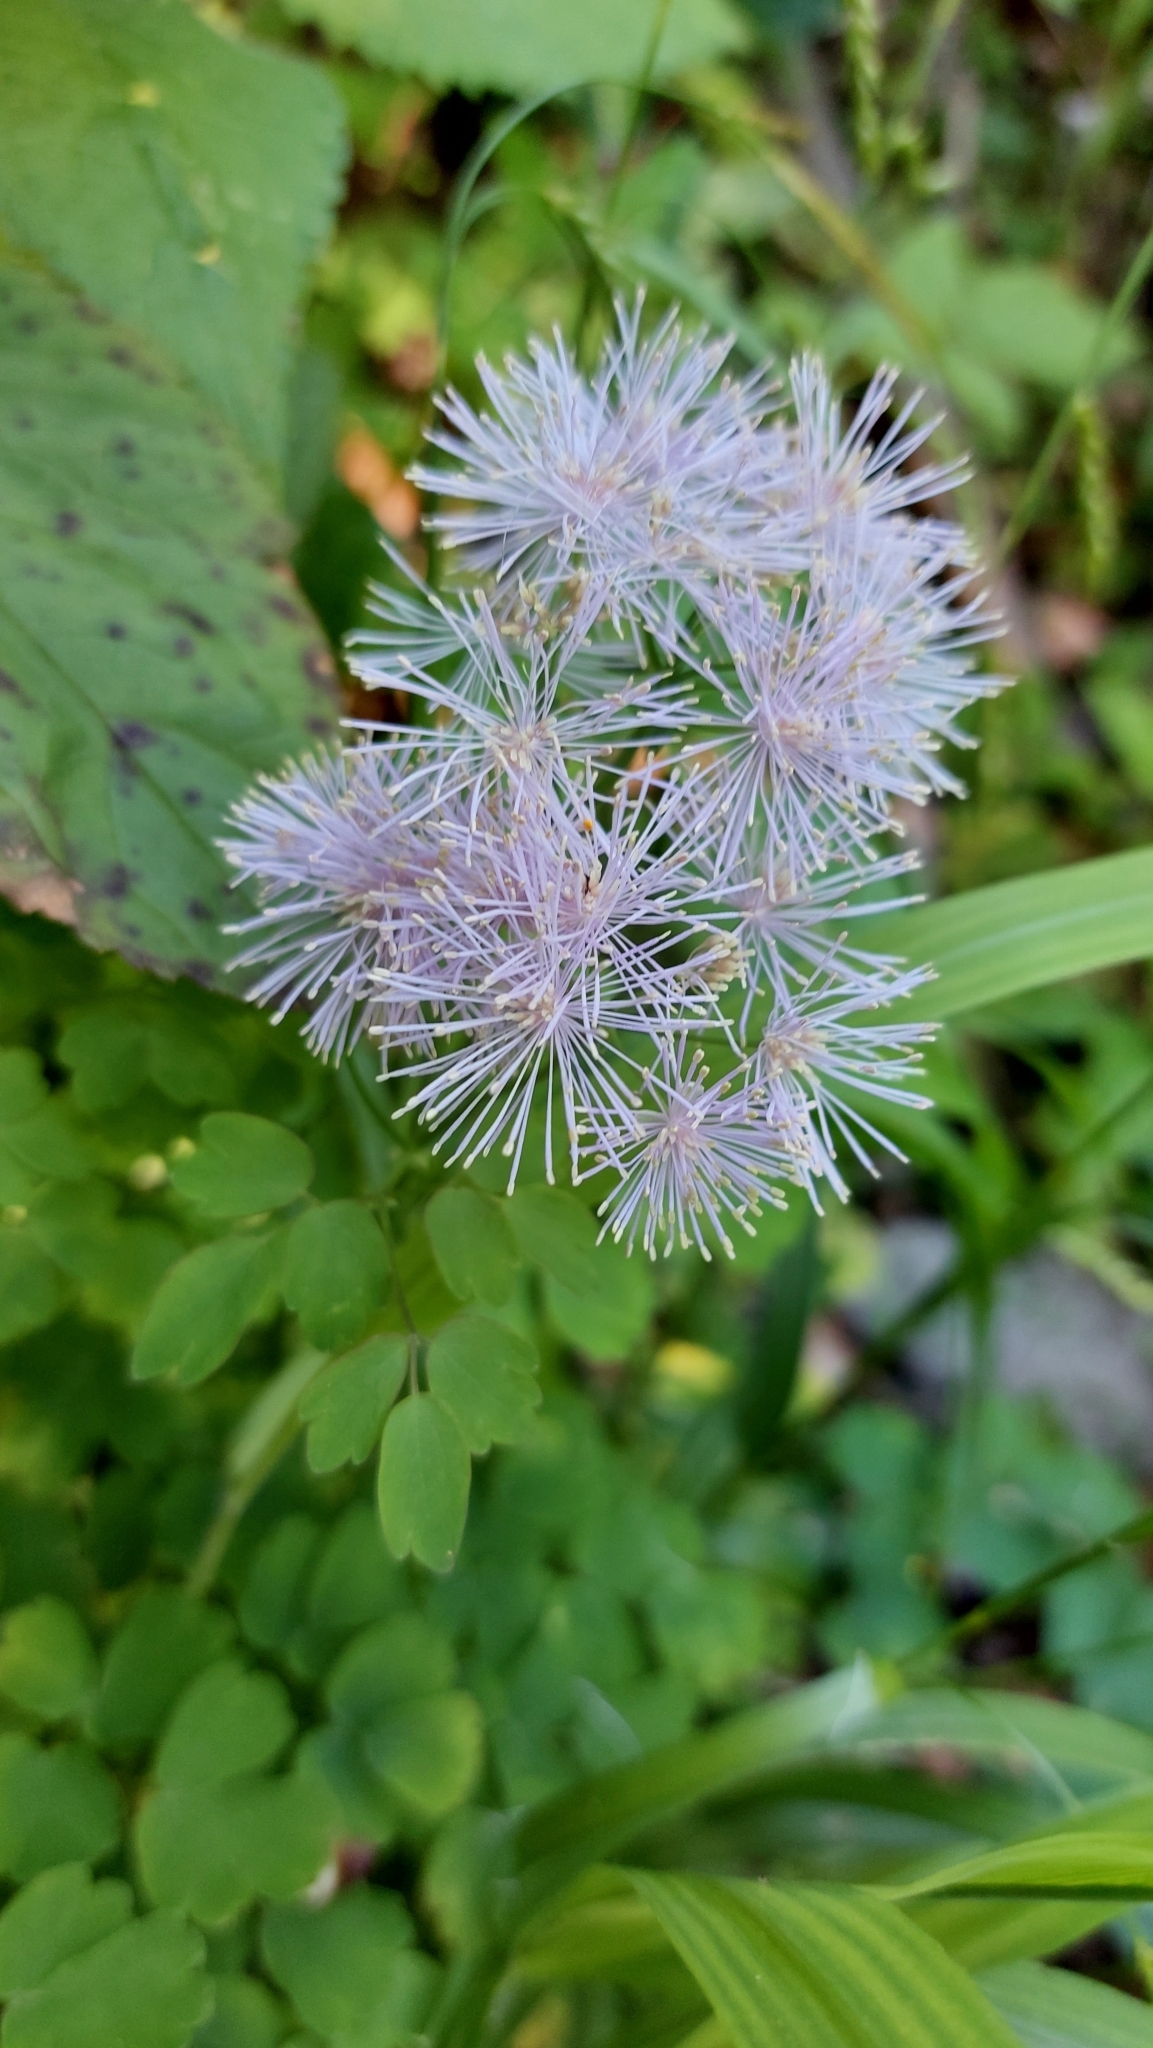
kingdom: Plantae
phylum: Tracheophyta
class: Magnoliopsida
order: Ranunculales
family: Ranunculaceae
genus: Thalictrum
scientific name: Thalictrum aquilegiifolium
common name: French meadow-rue
